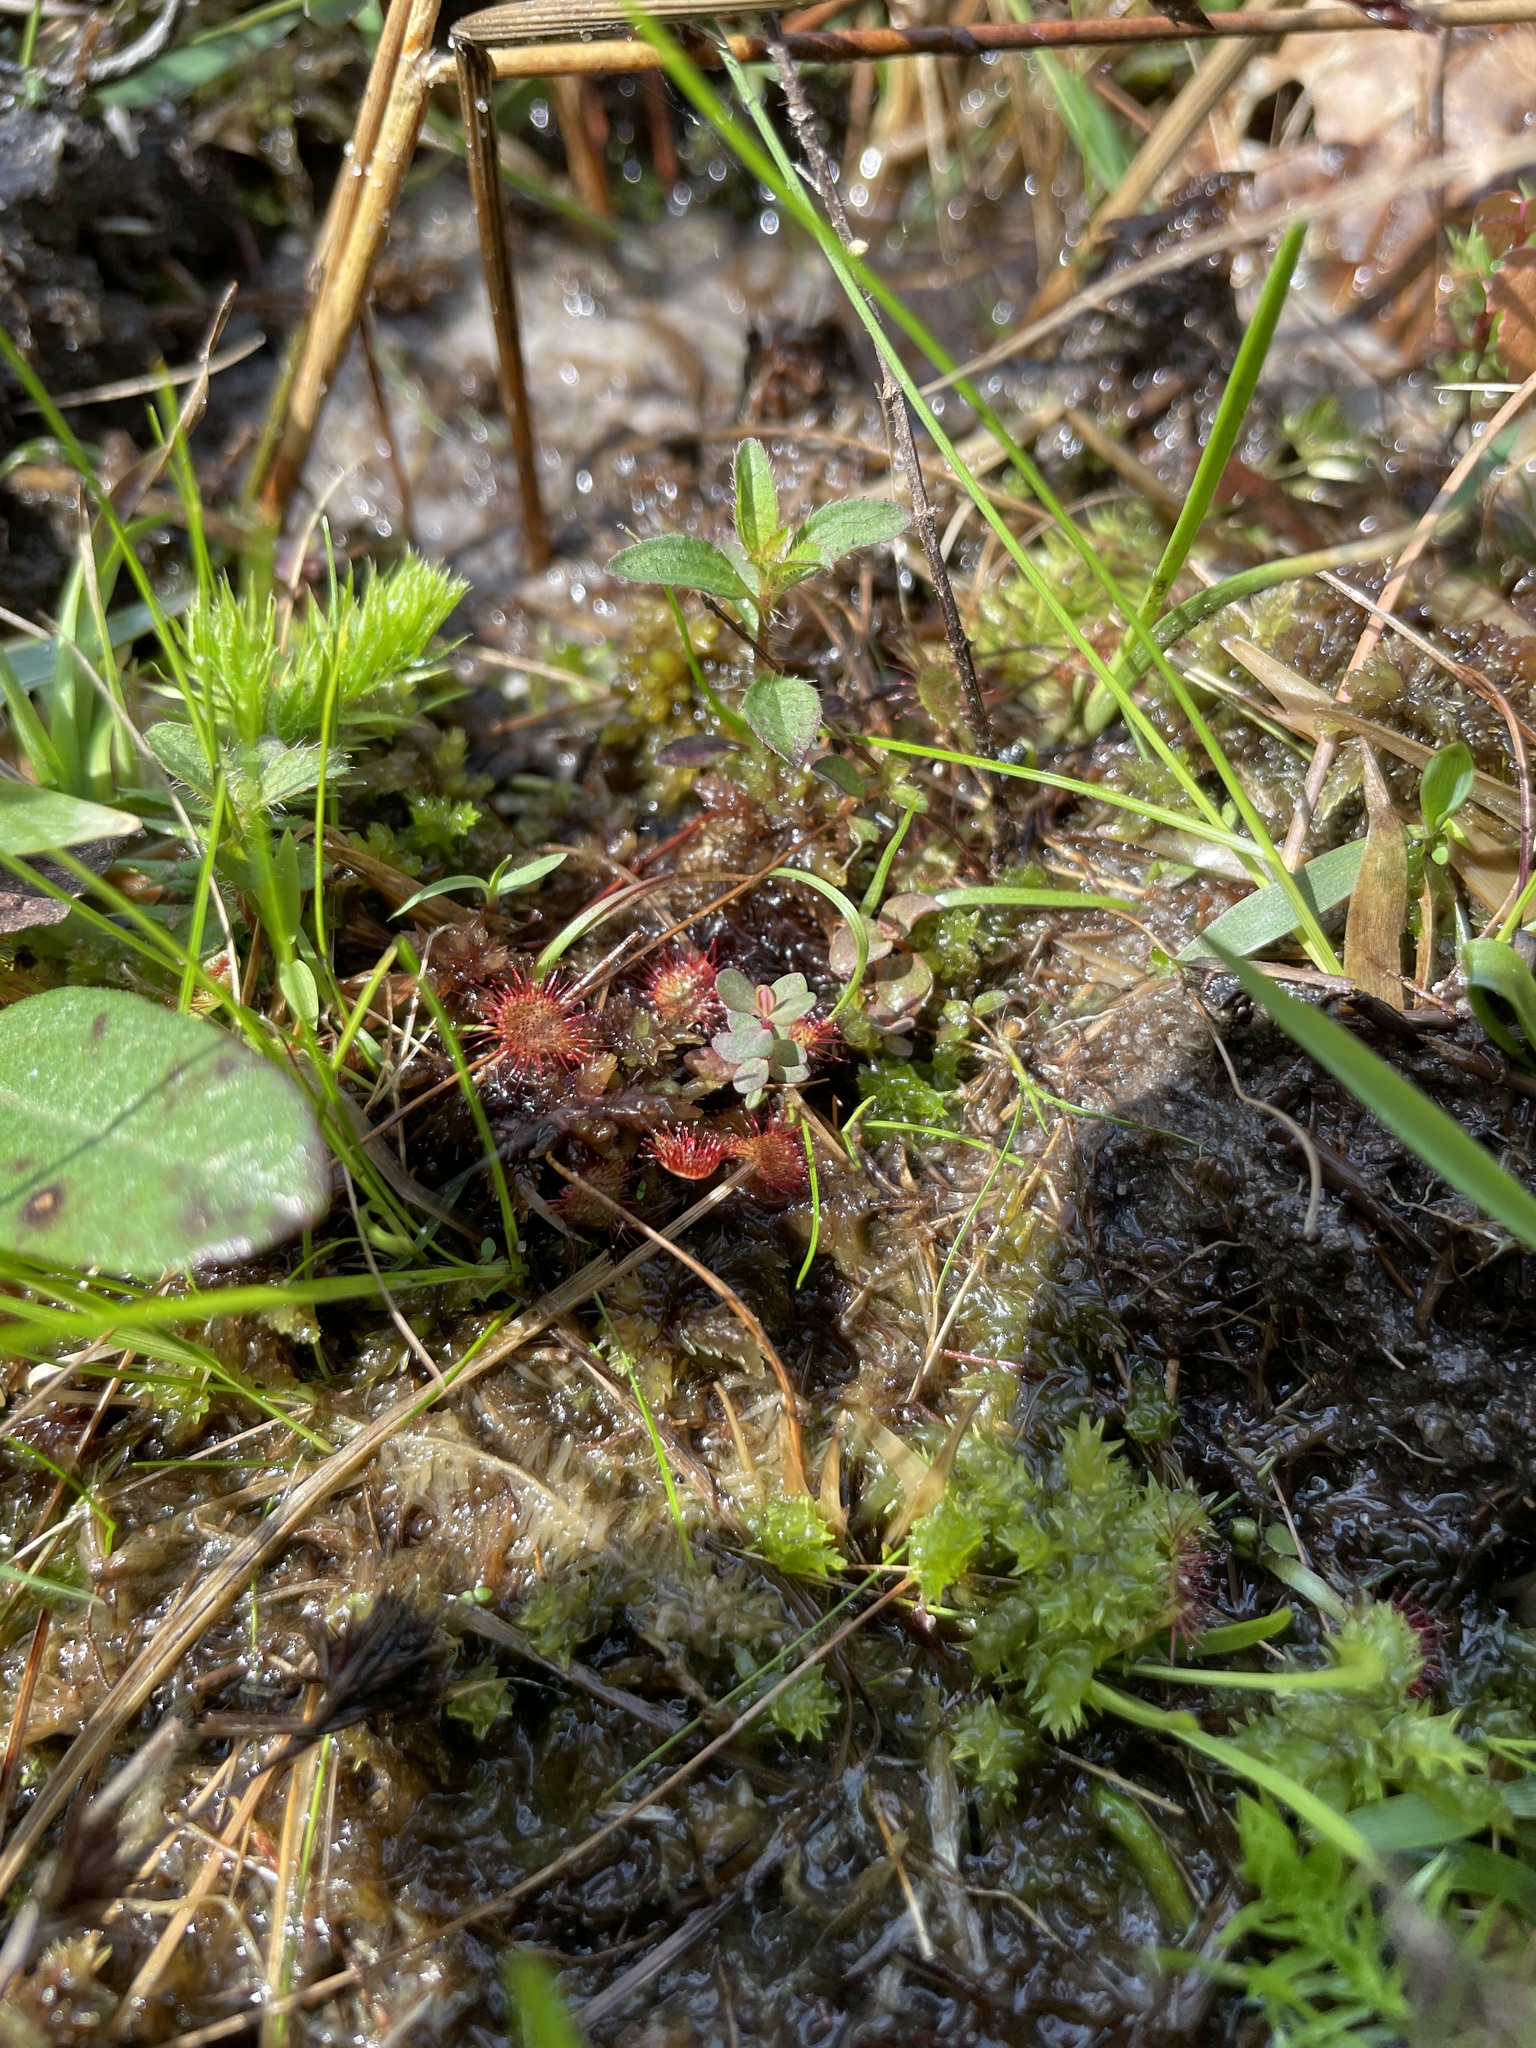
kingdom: Plantae
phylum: Tracheophyta
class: Magnoliopsida
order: Caryophyllales
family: Droseraceae
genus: Drosera
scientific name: Drosera capillaris
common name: Pink sundew
